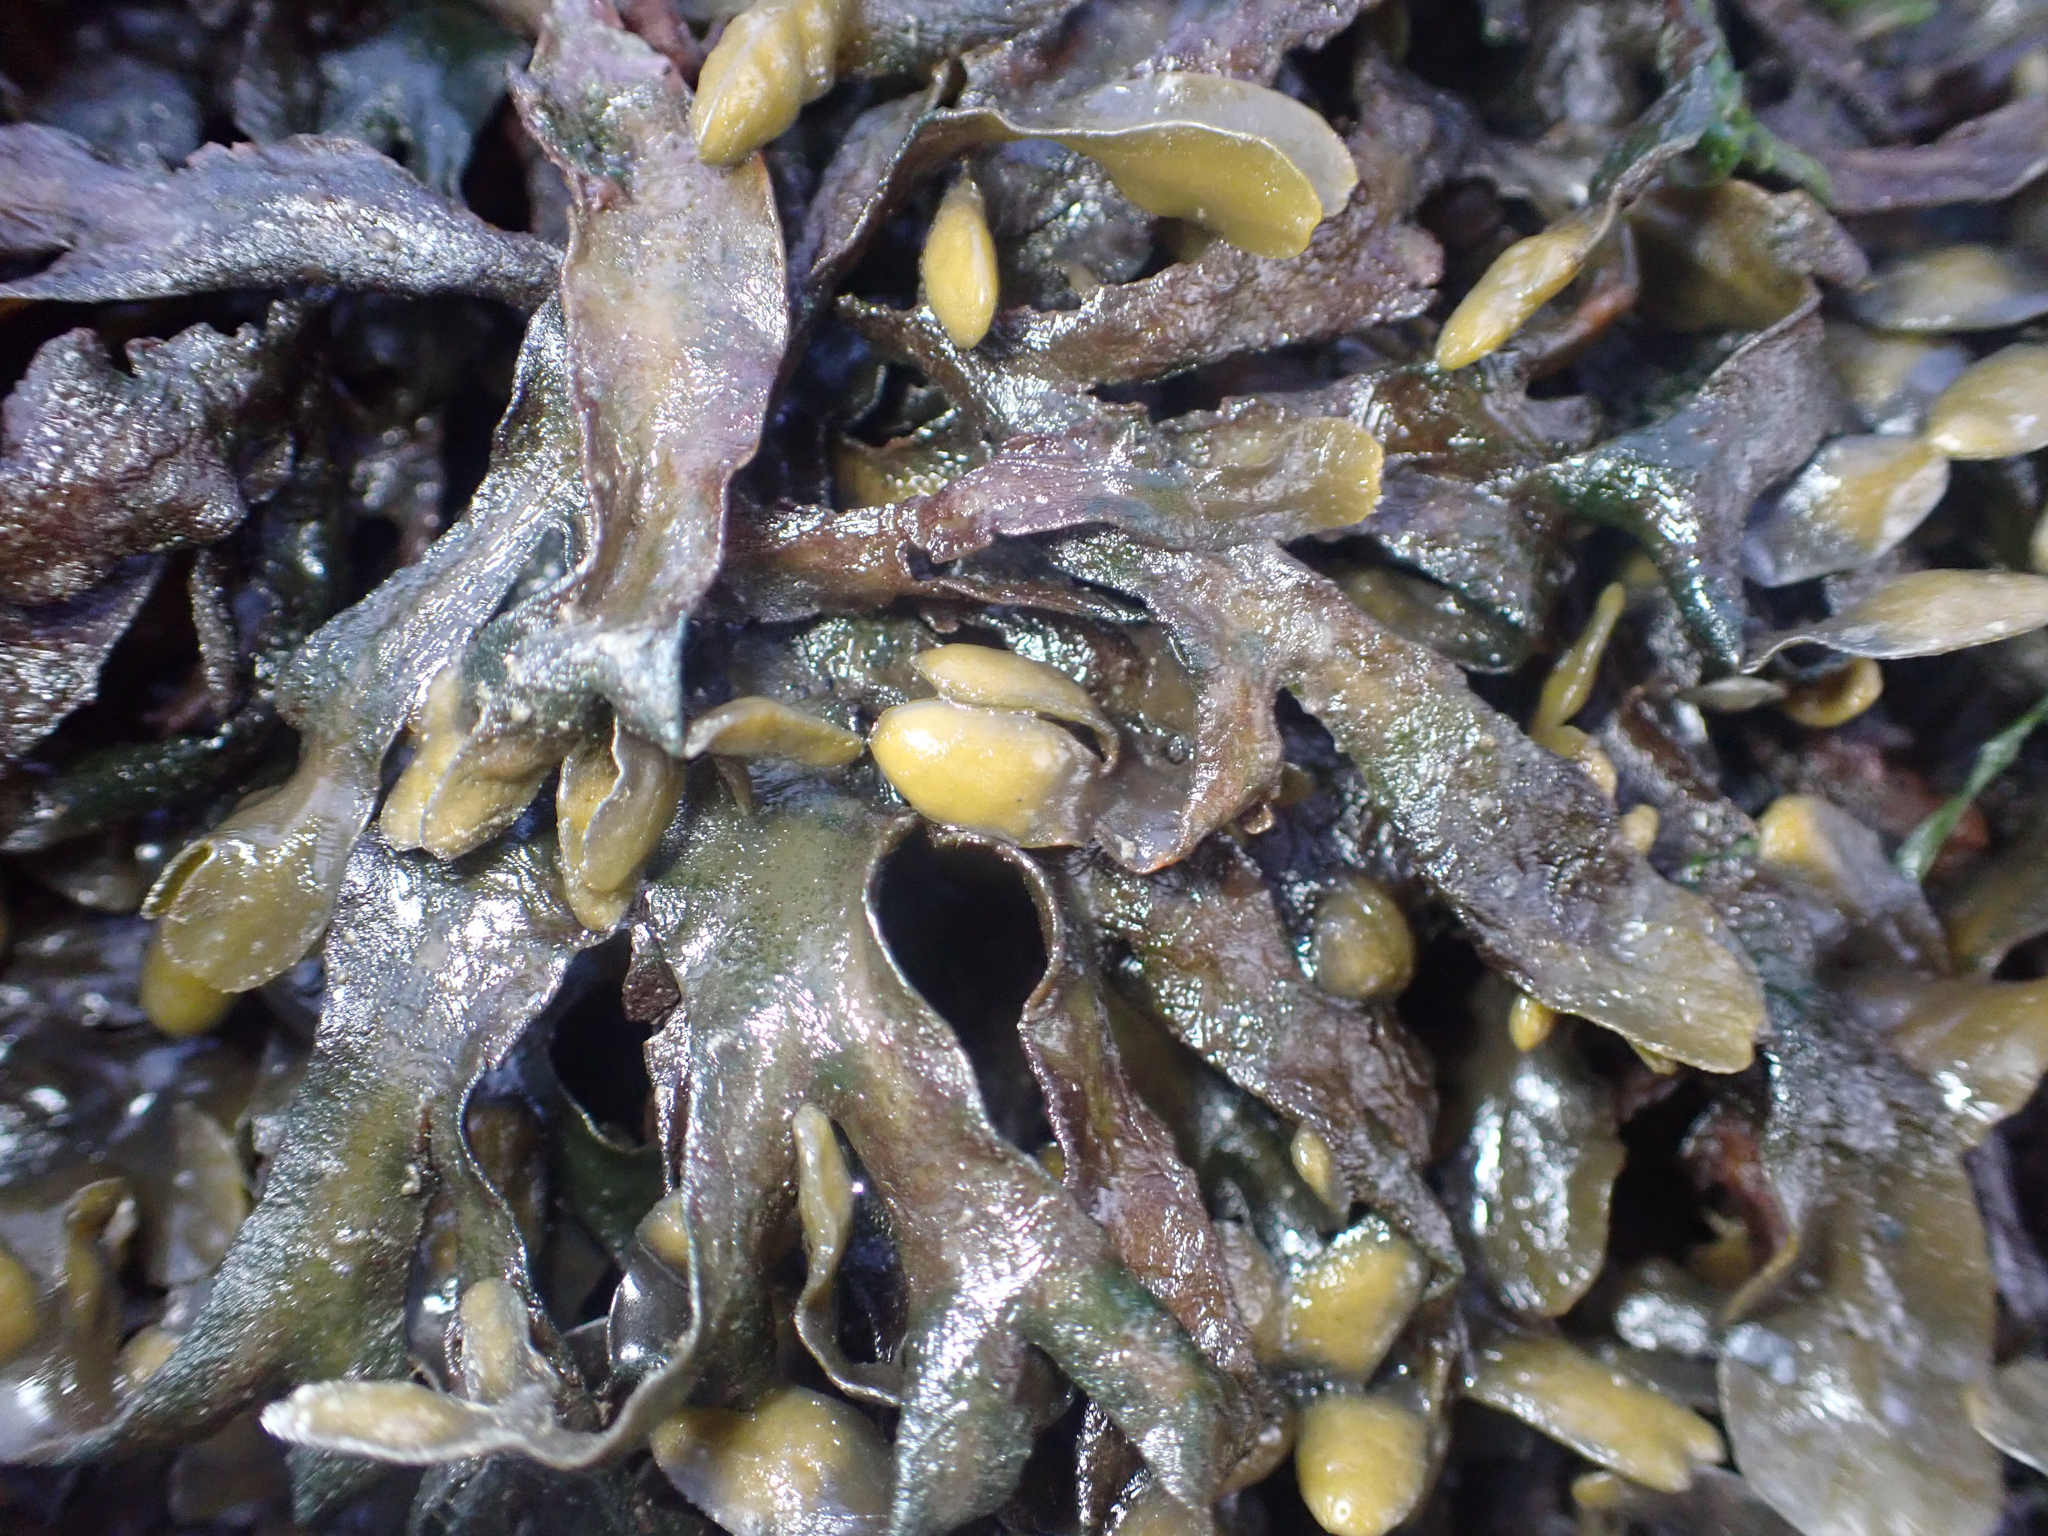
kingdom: Chromista
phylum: Ochrophyta
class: Phaeophyceae
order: Fucales
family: Fucaceae
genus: Fucus
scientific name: Fucus distichus
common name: Rockweed
